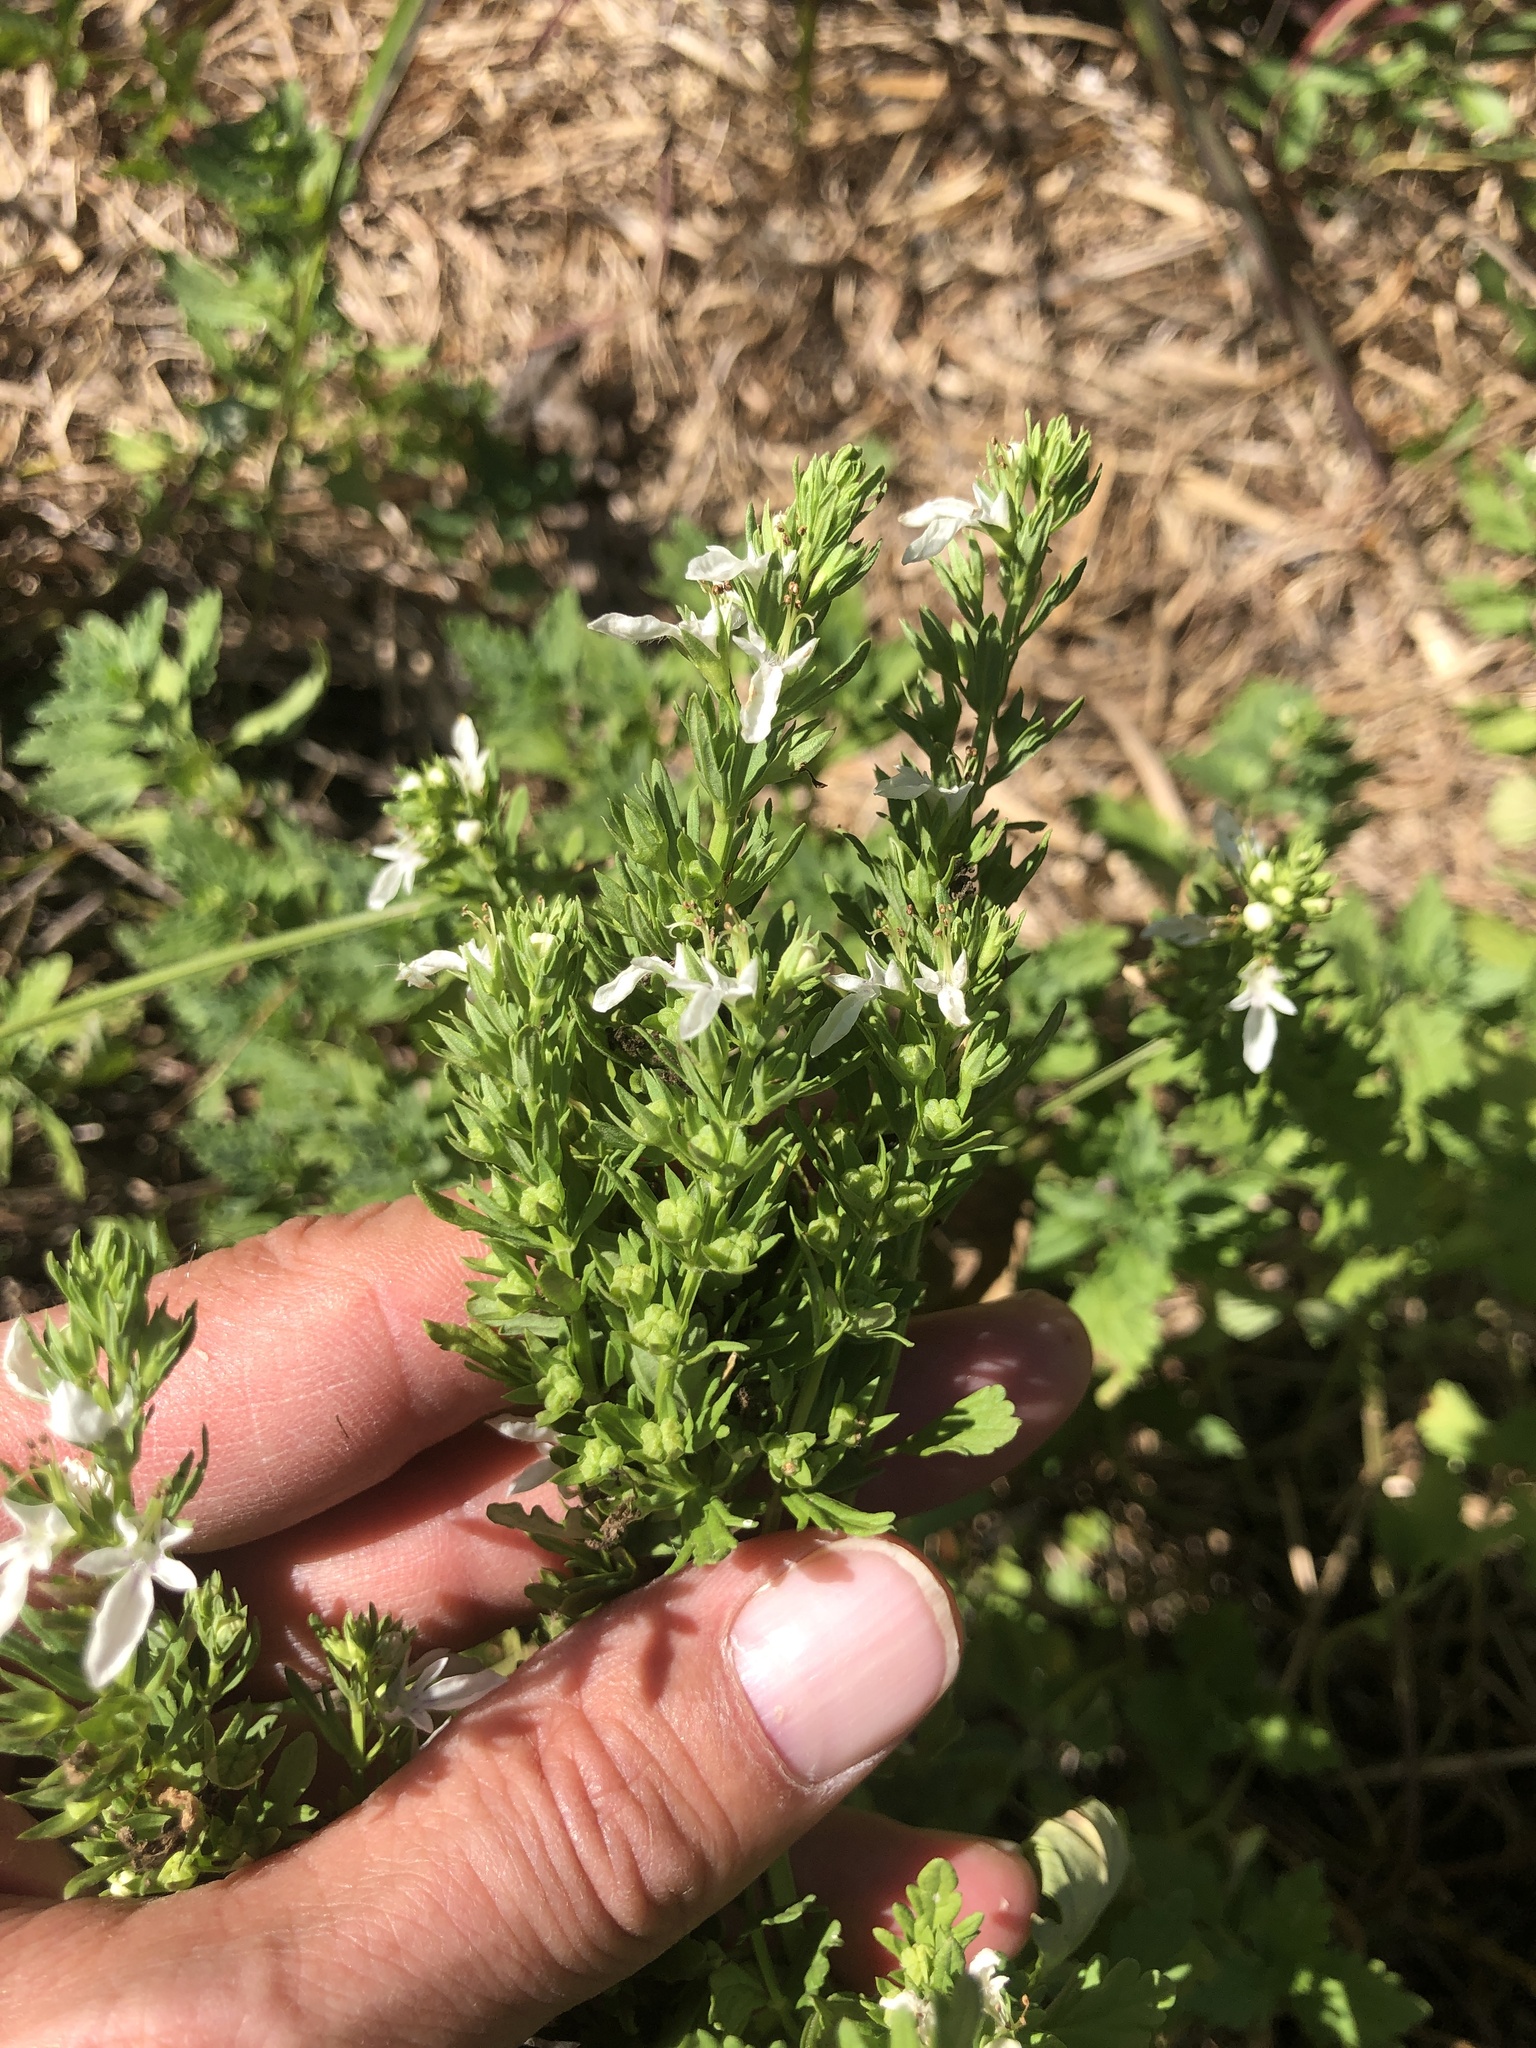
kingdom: Plantae
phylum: Tracheophyta
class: Magnoliopsida
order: Lamiales
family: Lamiaceae
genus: Teucrium
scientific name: Teucrium cubense
